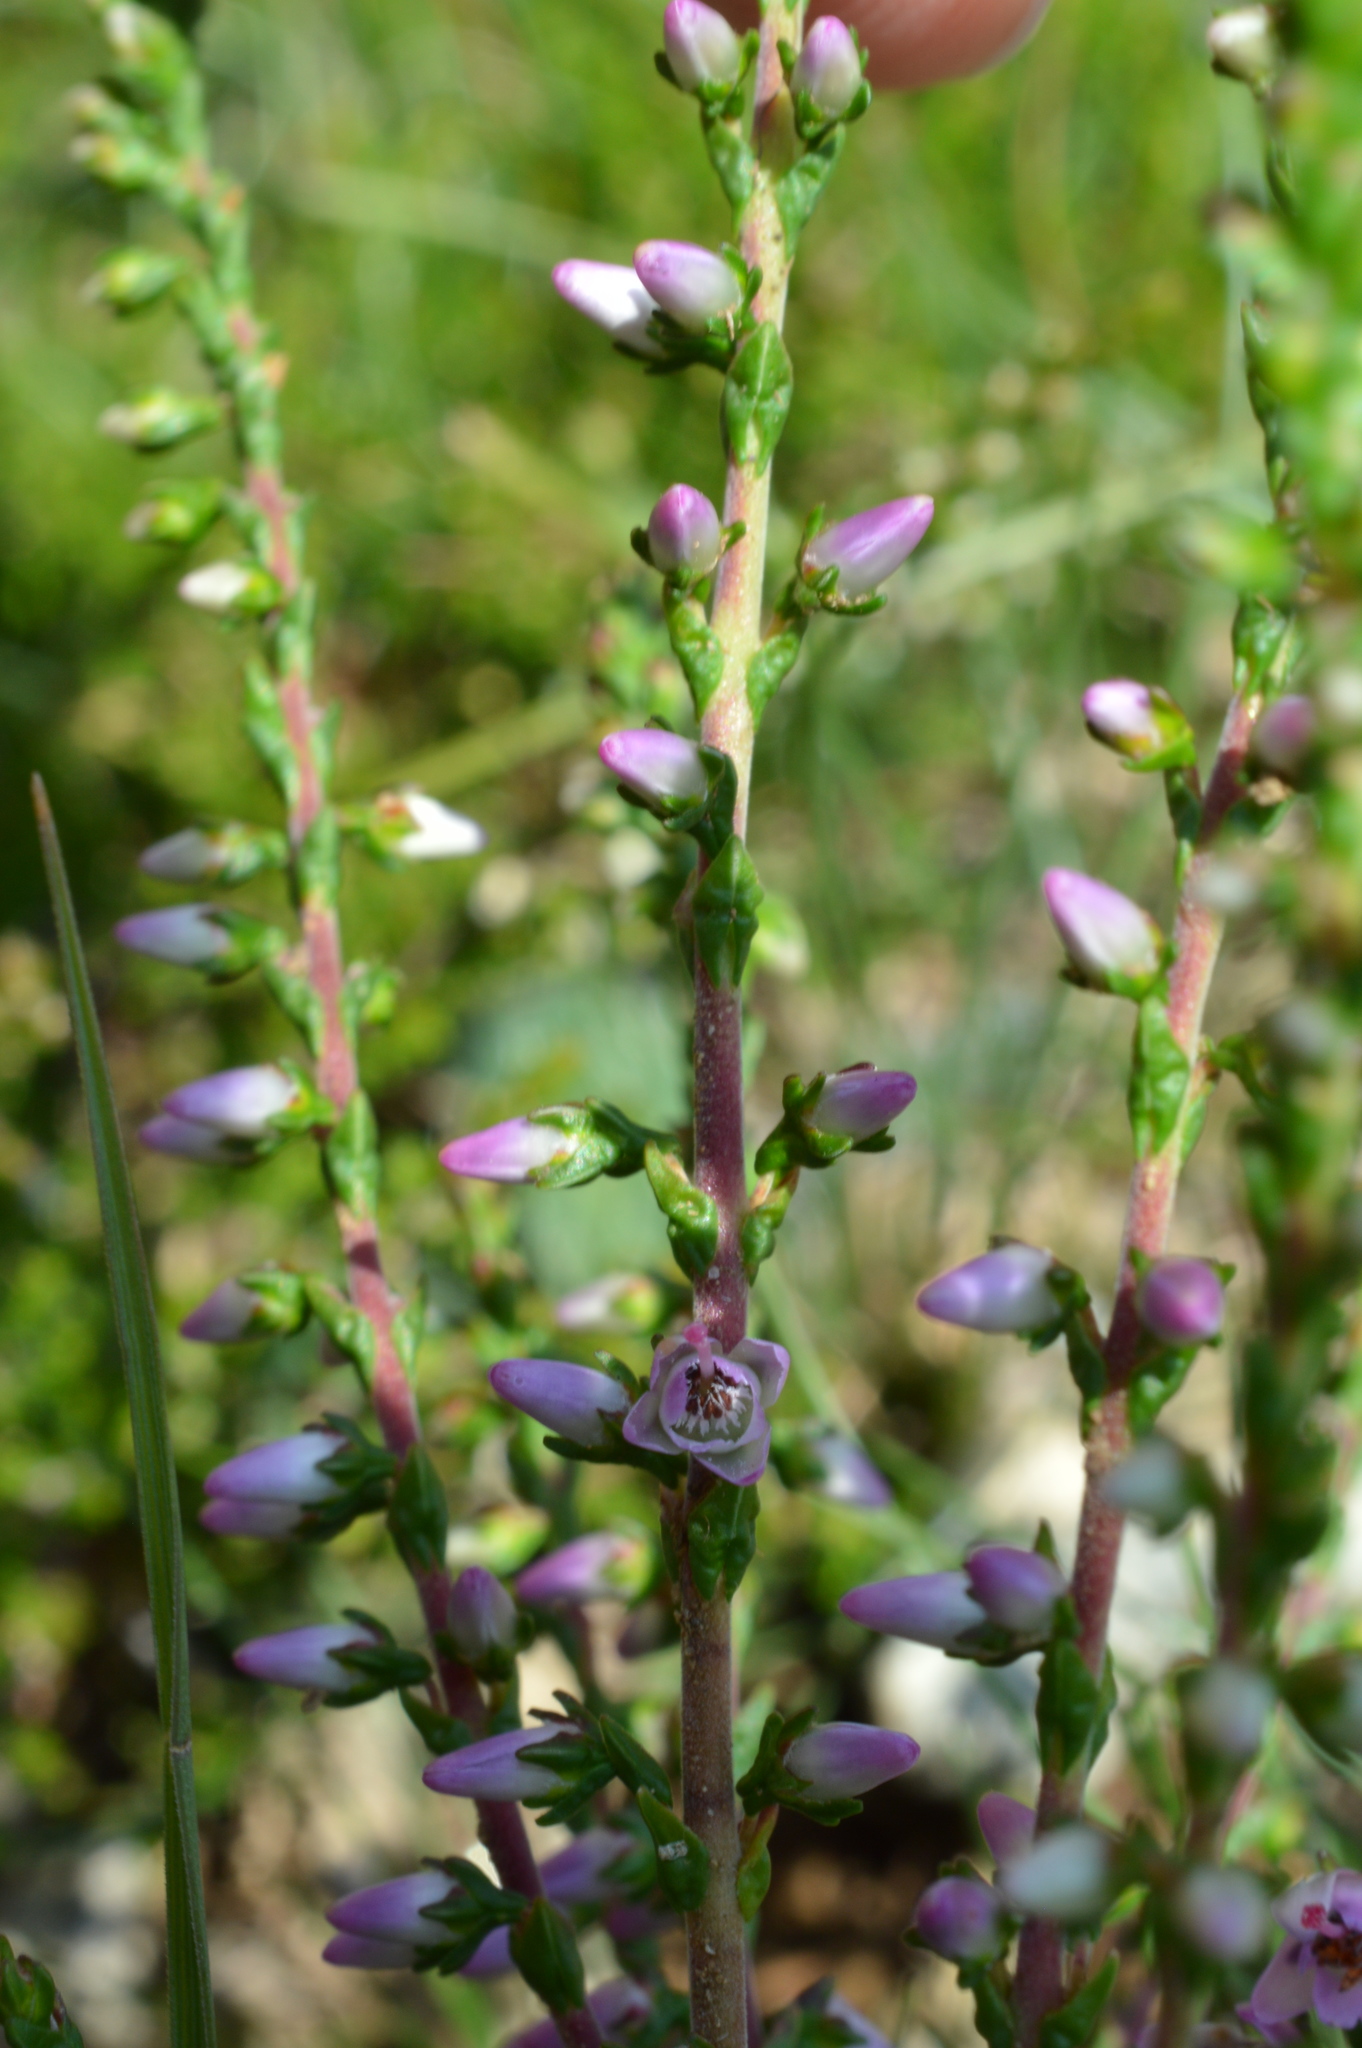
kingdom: Plantae
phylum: Tracheophyta
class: Magnoliopsida
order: Ericales
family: Ericaceae
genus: Calluna
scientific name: Calluna vulgaris
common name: Heather
